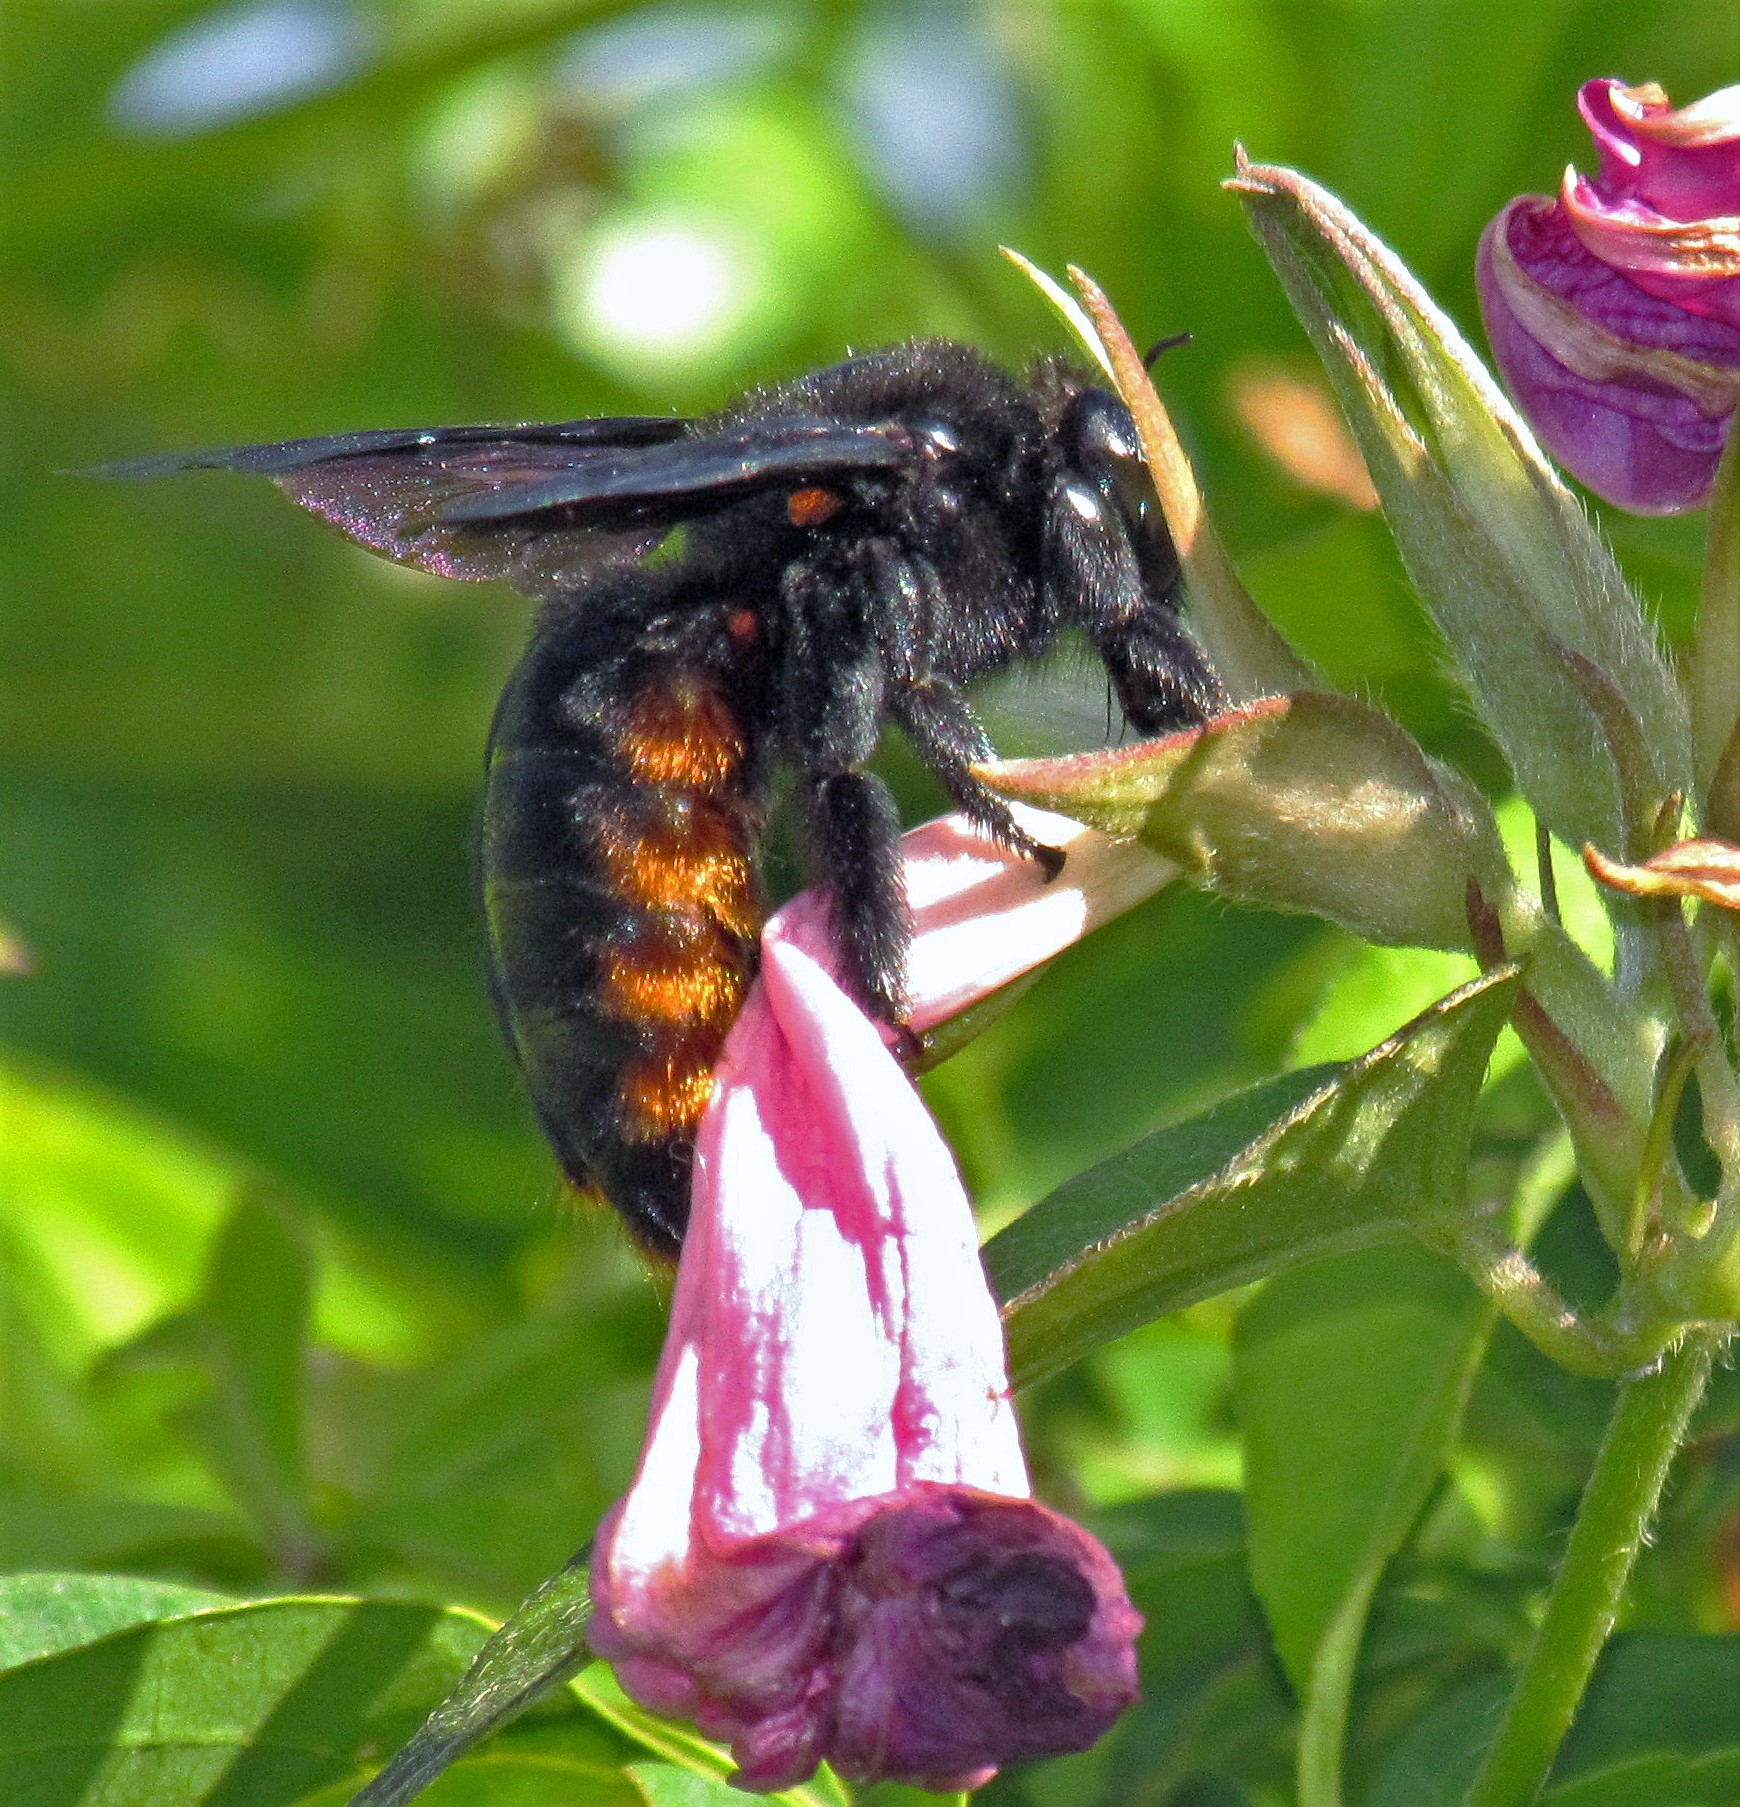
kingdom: Animalia
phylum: Arthropoda
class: Insecta
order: Hymenoptera
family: Apidae
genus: Xylocopa
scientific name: Xylocopa augusti
